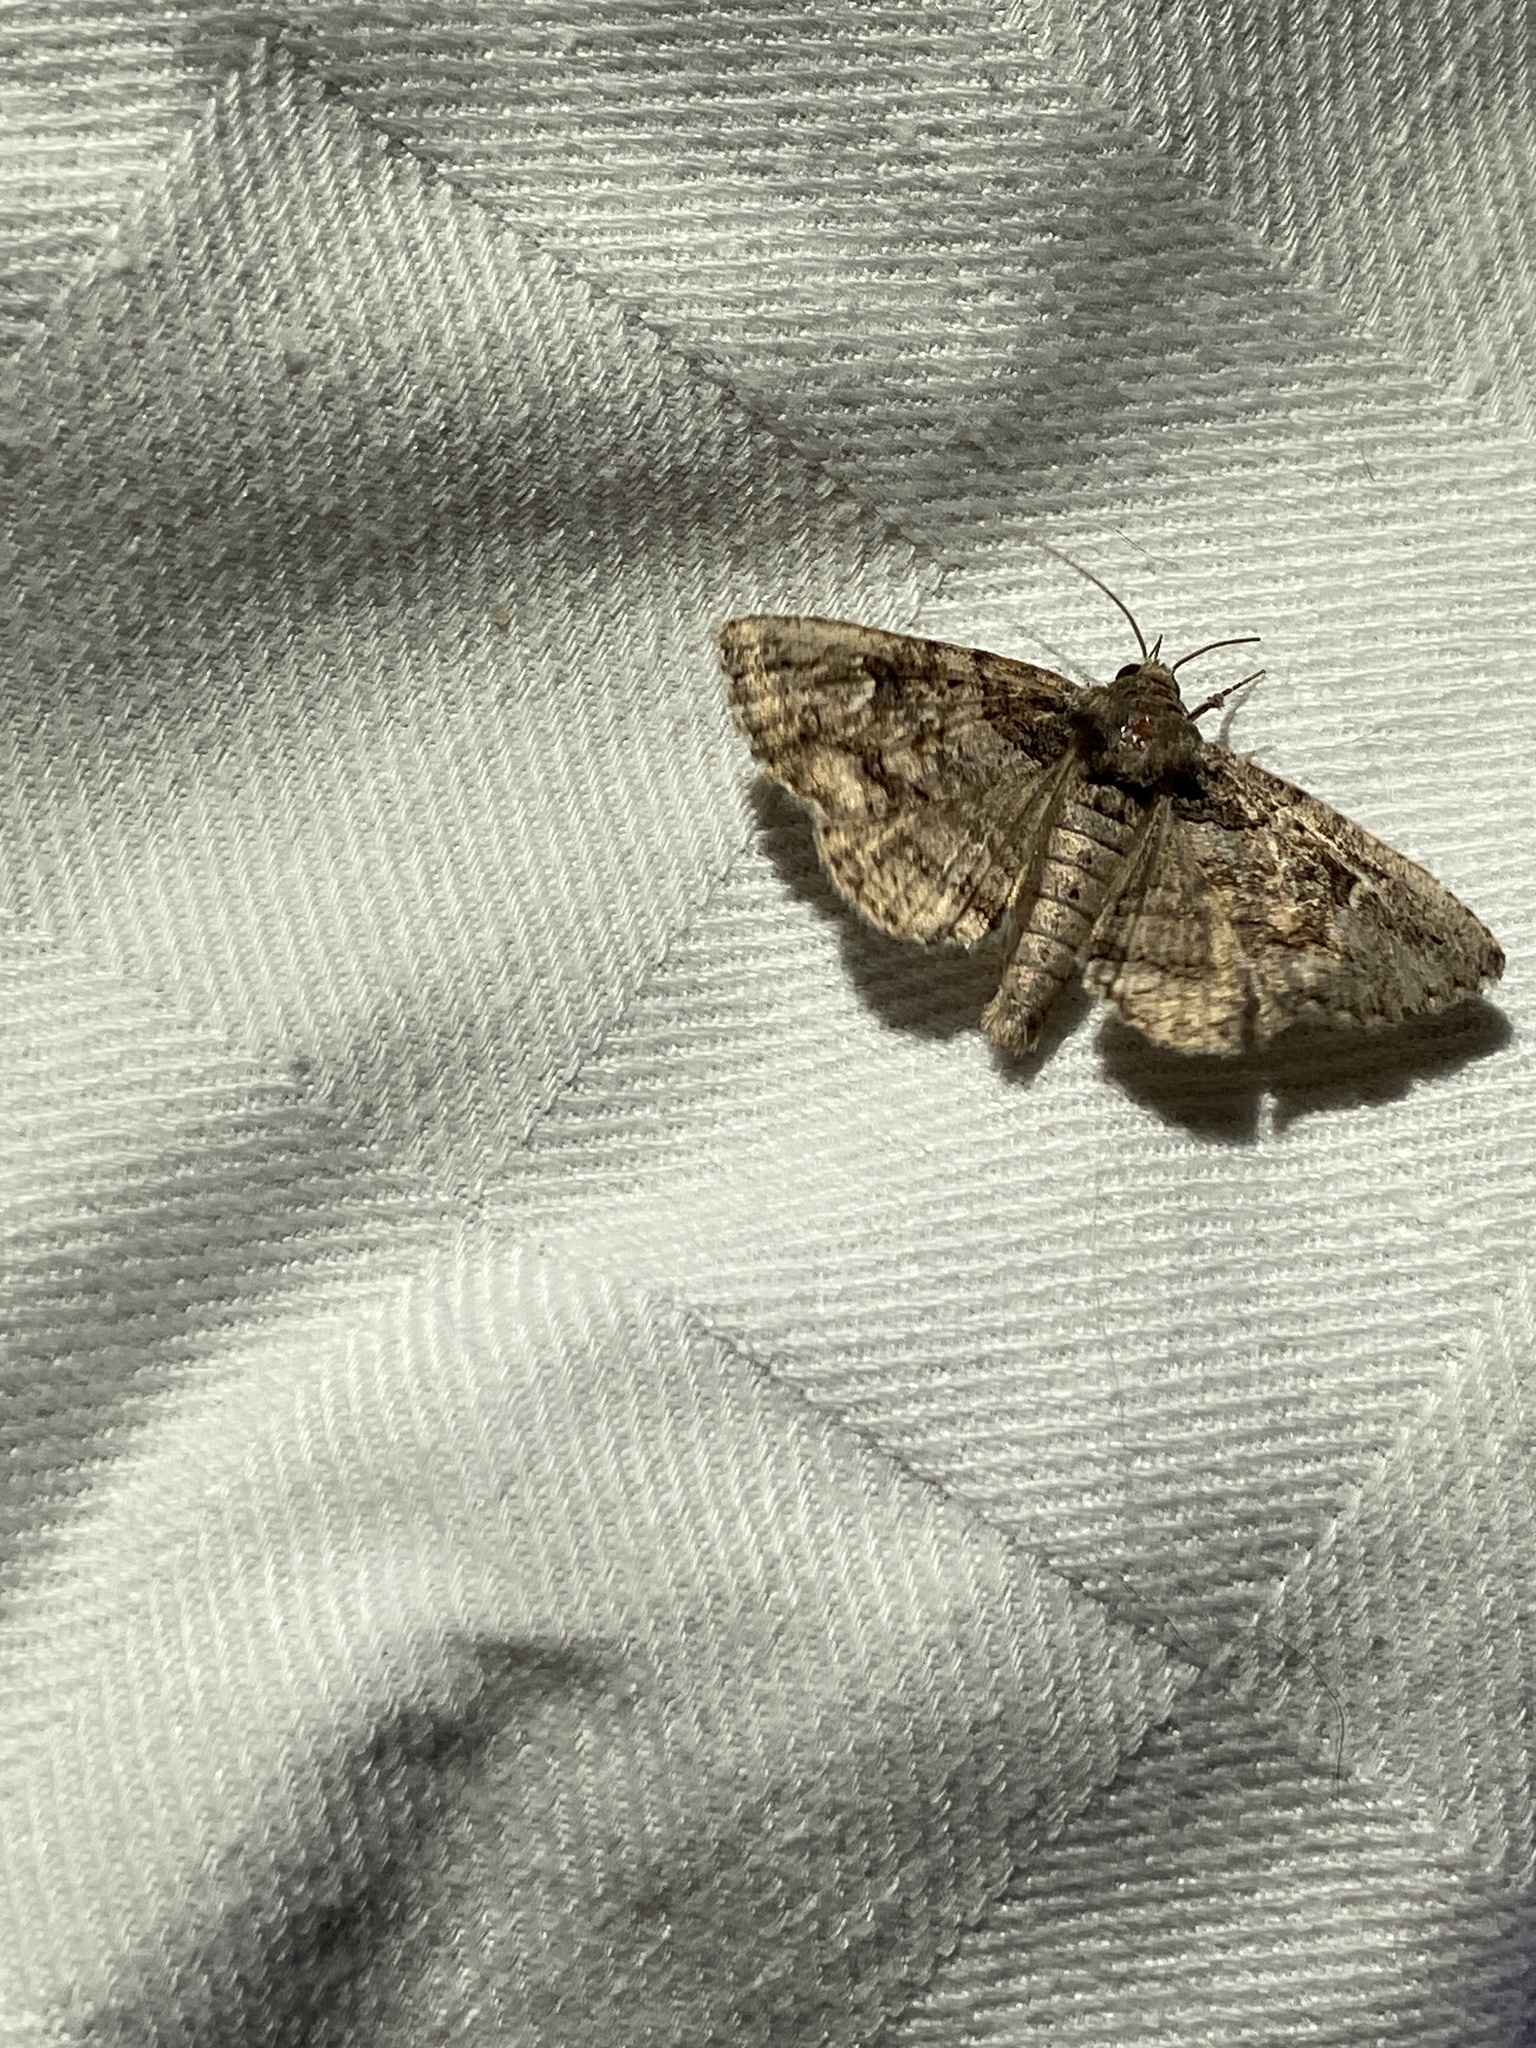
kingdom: Animalia
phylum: Arthropoda
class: Insecta
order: Lepidoptera
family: Erebidae
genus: Zale
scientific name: Zale edusina
